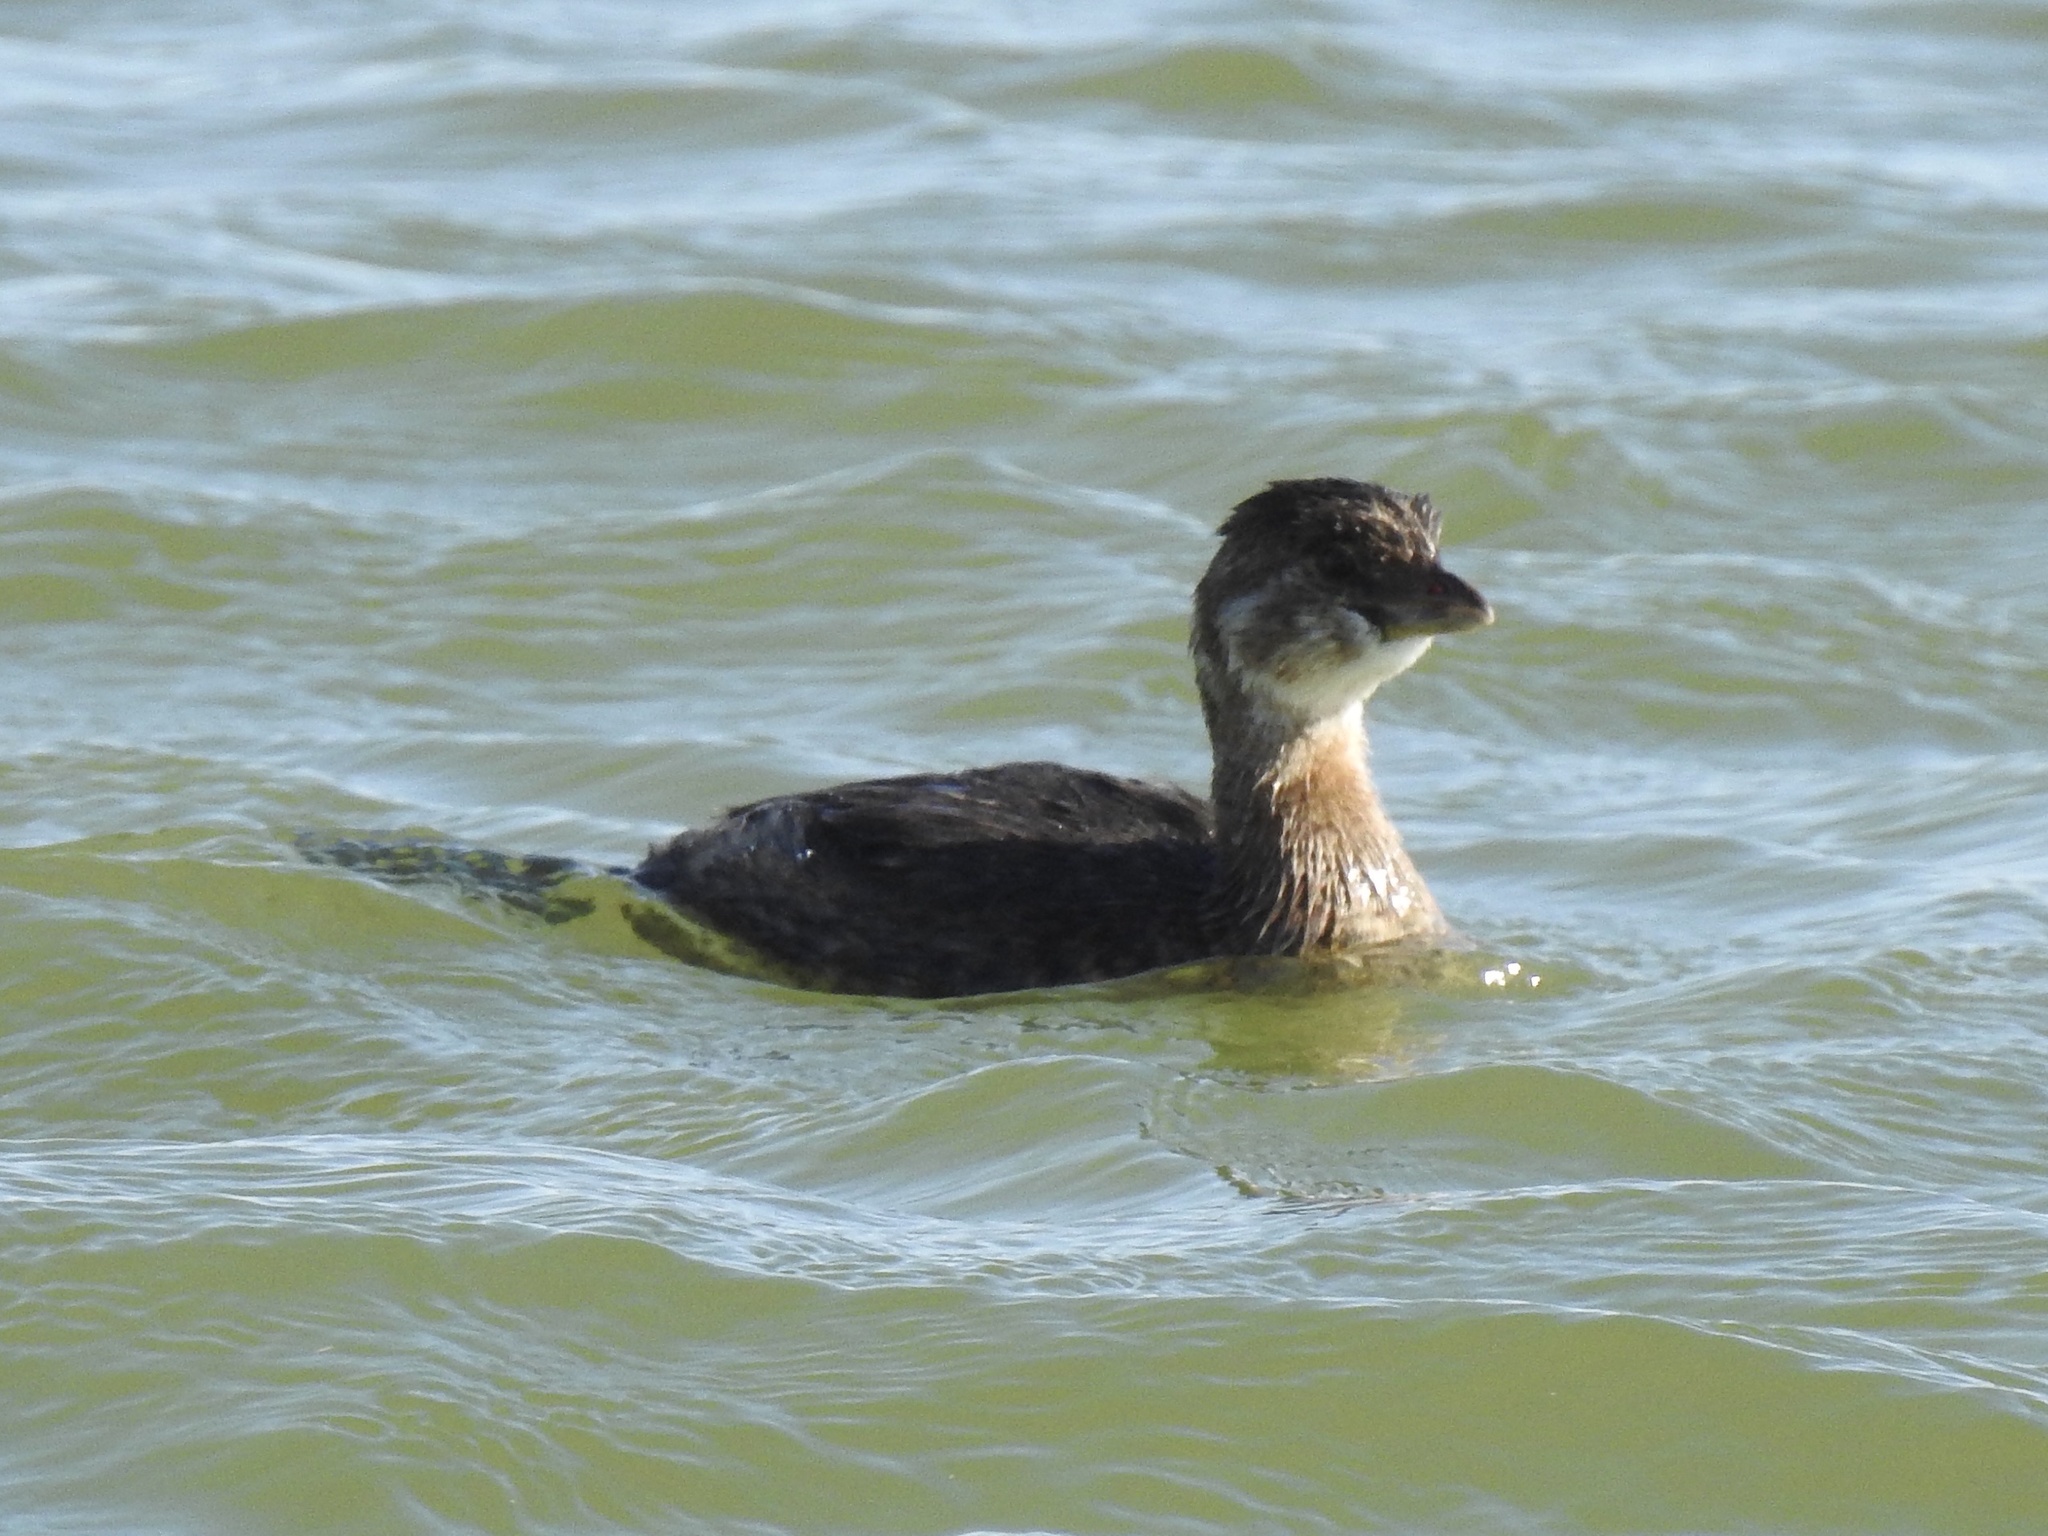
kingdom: Animalia
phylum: Chordata
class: Aves
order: Podicipediformes
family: Podicipedidae
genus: Podilymbus
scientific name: Podilymbus podiceps
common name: Pied-billed grebe
